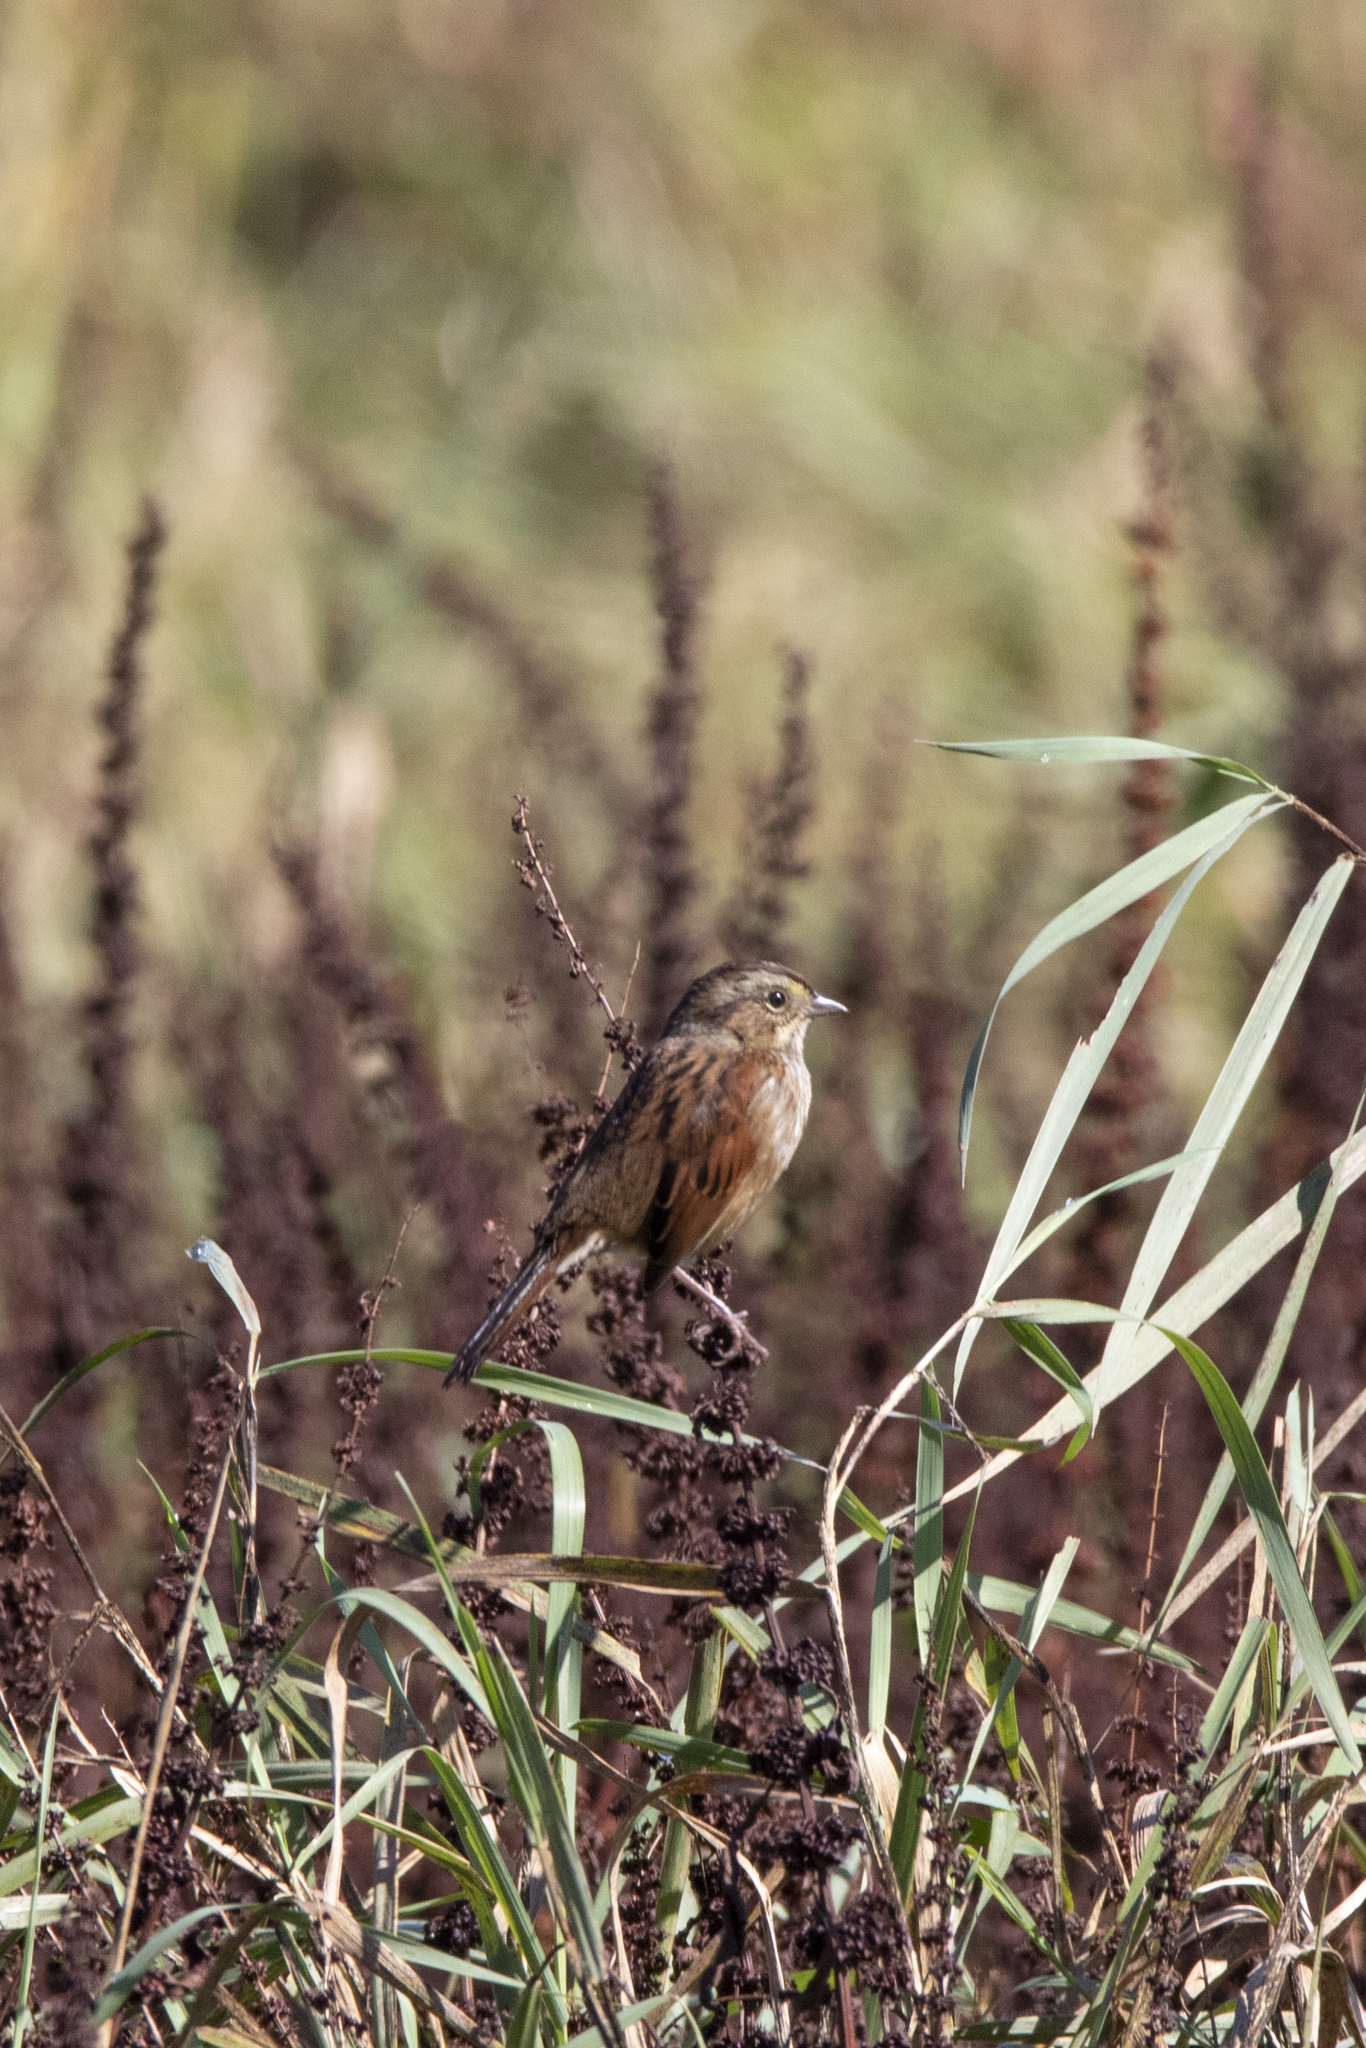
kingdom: Animalia
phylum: Chordata
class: Aves
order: Passeriformes
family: Passerellidae
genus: Melospiza
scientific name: Melospiza georgiana
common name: Swamp sparrow
